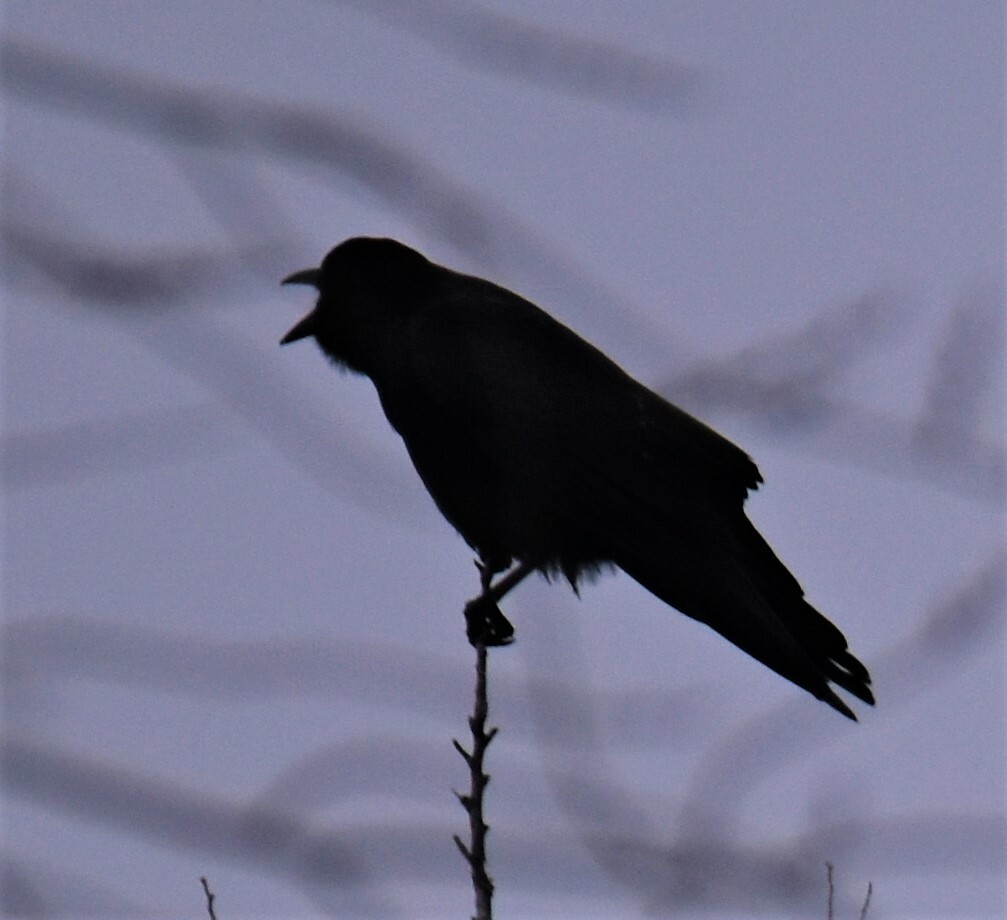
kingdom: Animalia
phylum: Chordata
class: Aves
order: Passeriformes
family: Corvidae
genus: Corvus
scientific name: Corvus brachyrhynchos
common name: American crow
